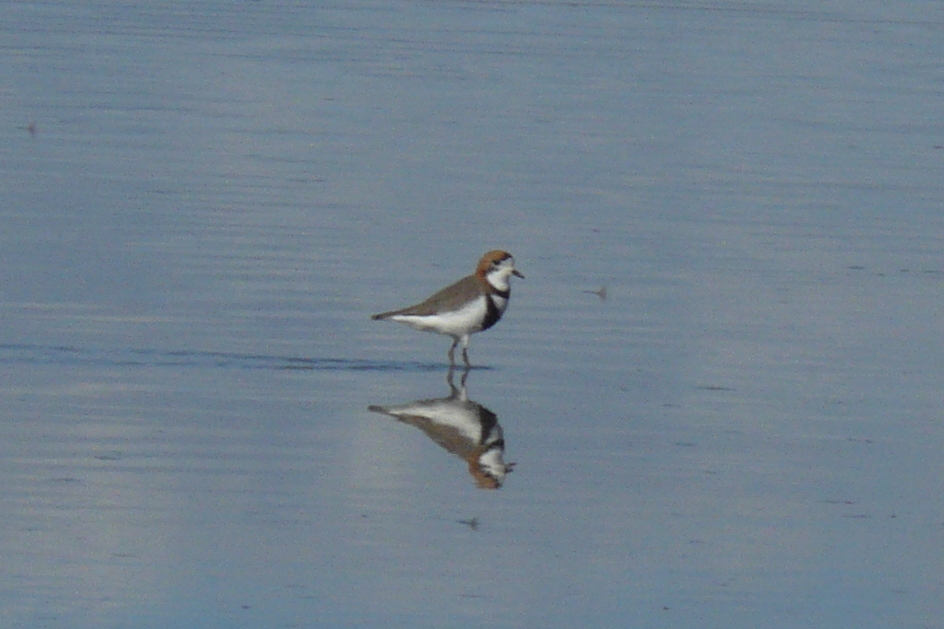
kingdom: Animalia
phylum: Chordata
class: Aves
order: Charadriiformes
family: Charadriidae
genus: Anarhynchus
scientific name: Anarhynchus
